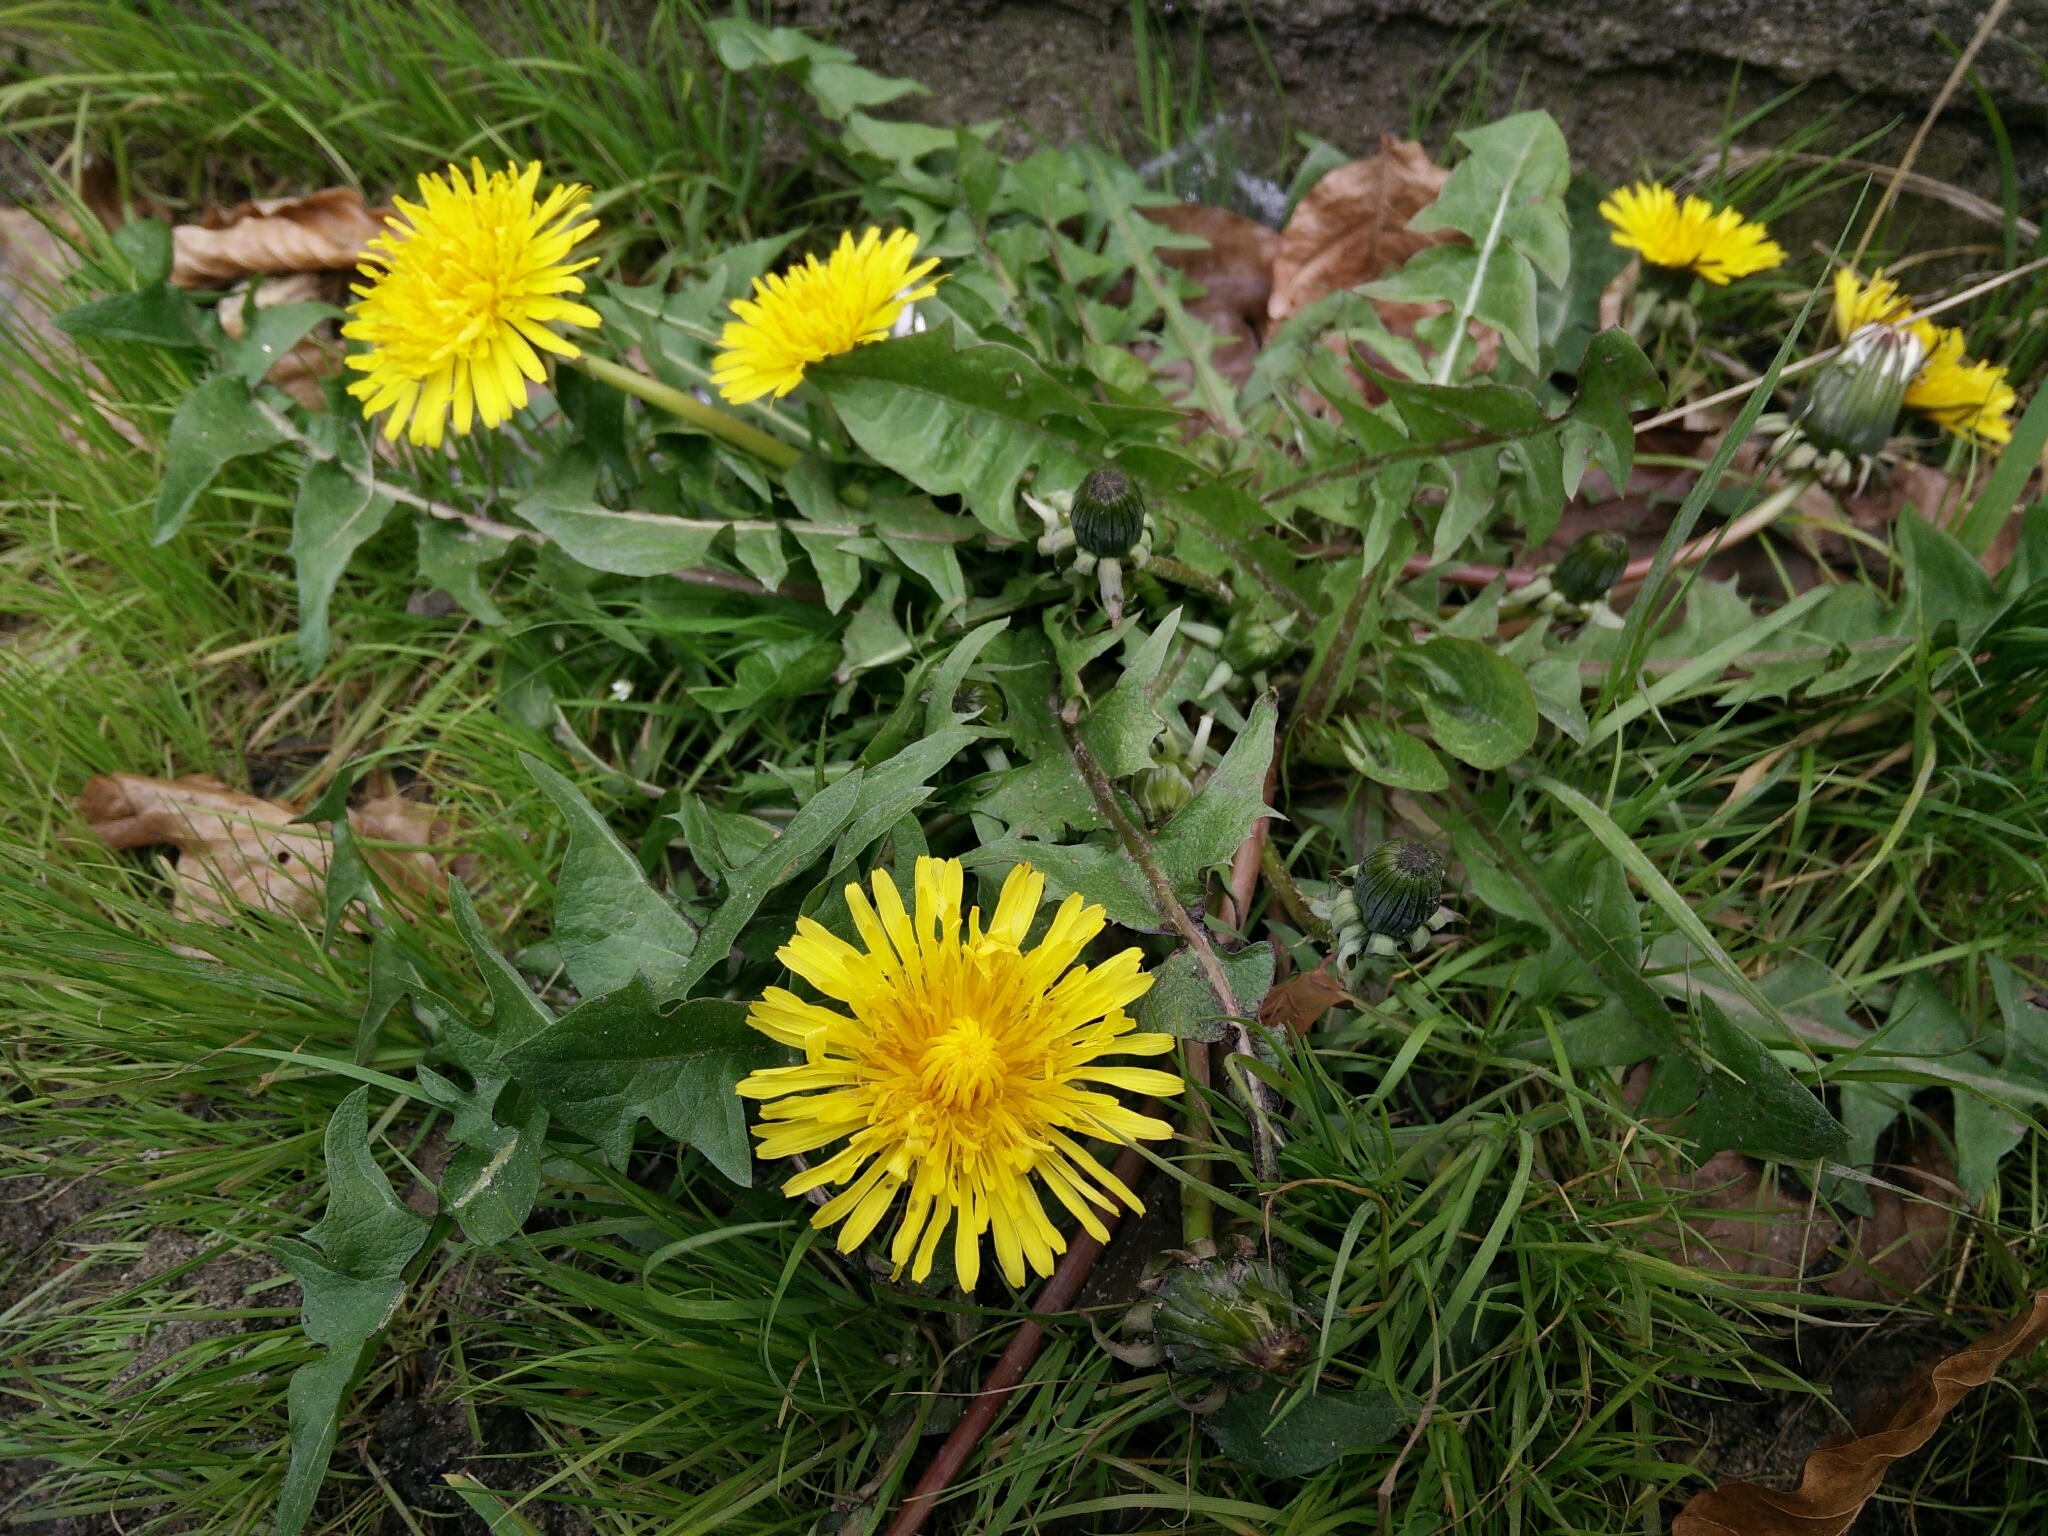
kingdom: Plantae
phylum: Tracheophyta
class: Magnoliopsida
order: Asterales
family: Asteraceae
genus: Taraxacum
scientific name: Taraxacum officinale
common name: Common dandelion
